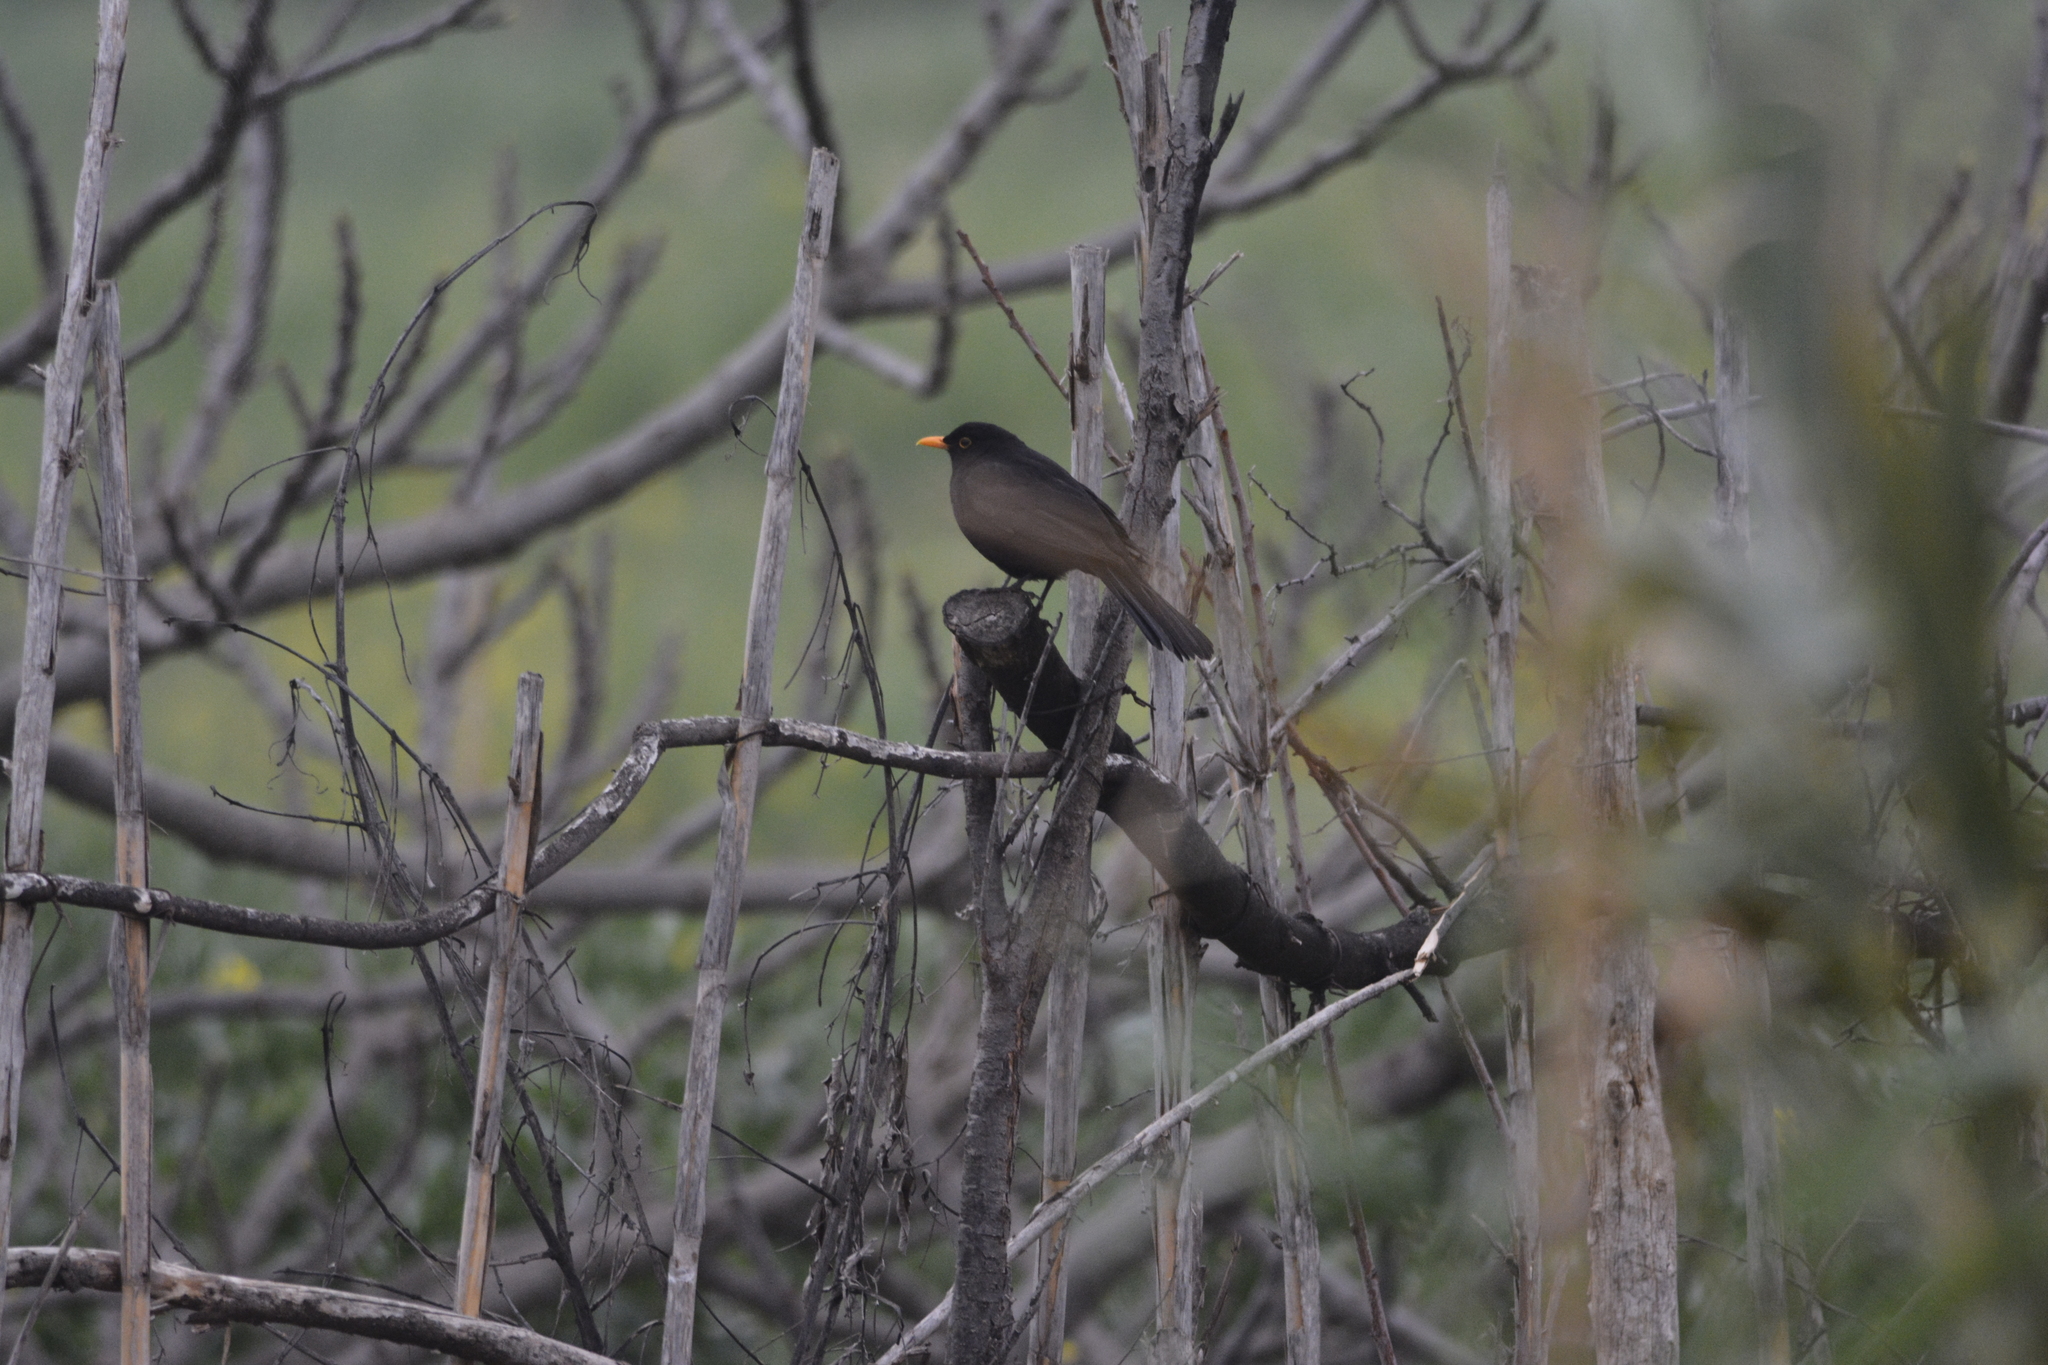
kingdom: Animalia
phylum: Chordata
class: Aves
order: Passeriformes
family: Turdidae
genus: Turdus
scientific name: Turdus merula
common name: Common blackbird
